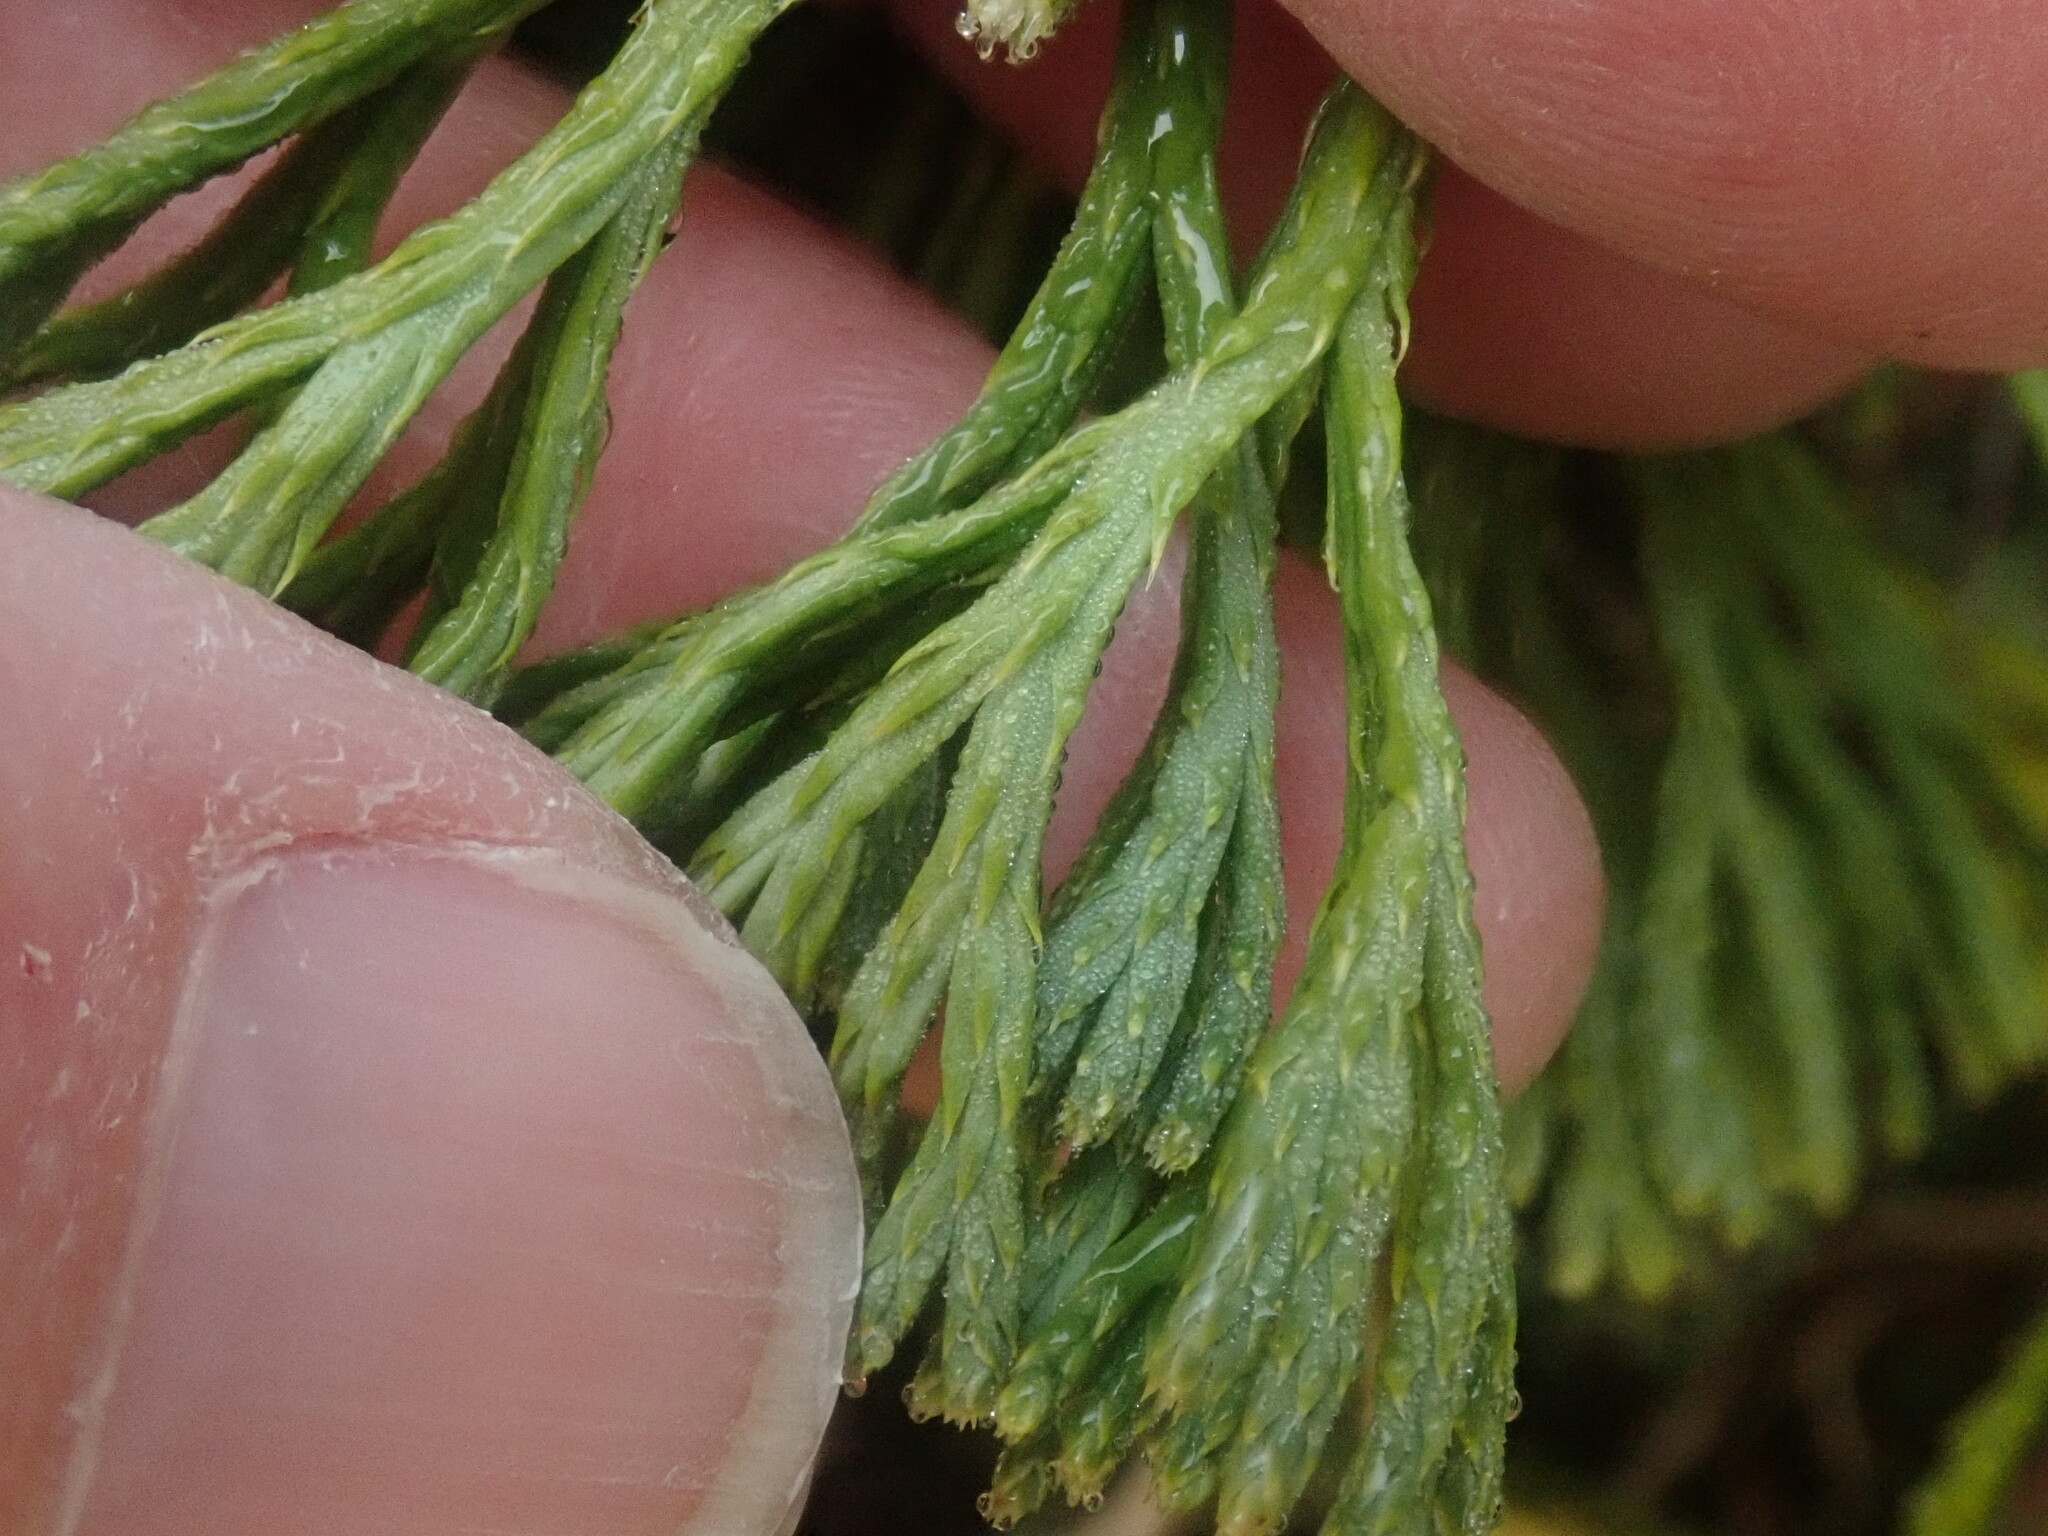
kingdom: Plantae
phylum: Tracheophyta
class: Lycopodiopsida
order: Lycopodiales
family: Lycopodiaceae
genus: Diphasiastrum
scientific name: Diphasiastrum tristachyum
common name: Blue ground-cedar
